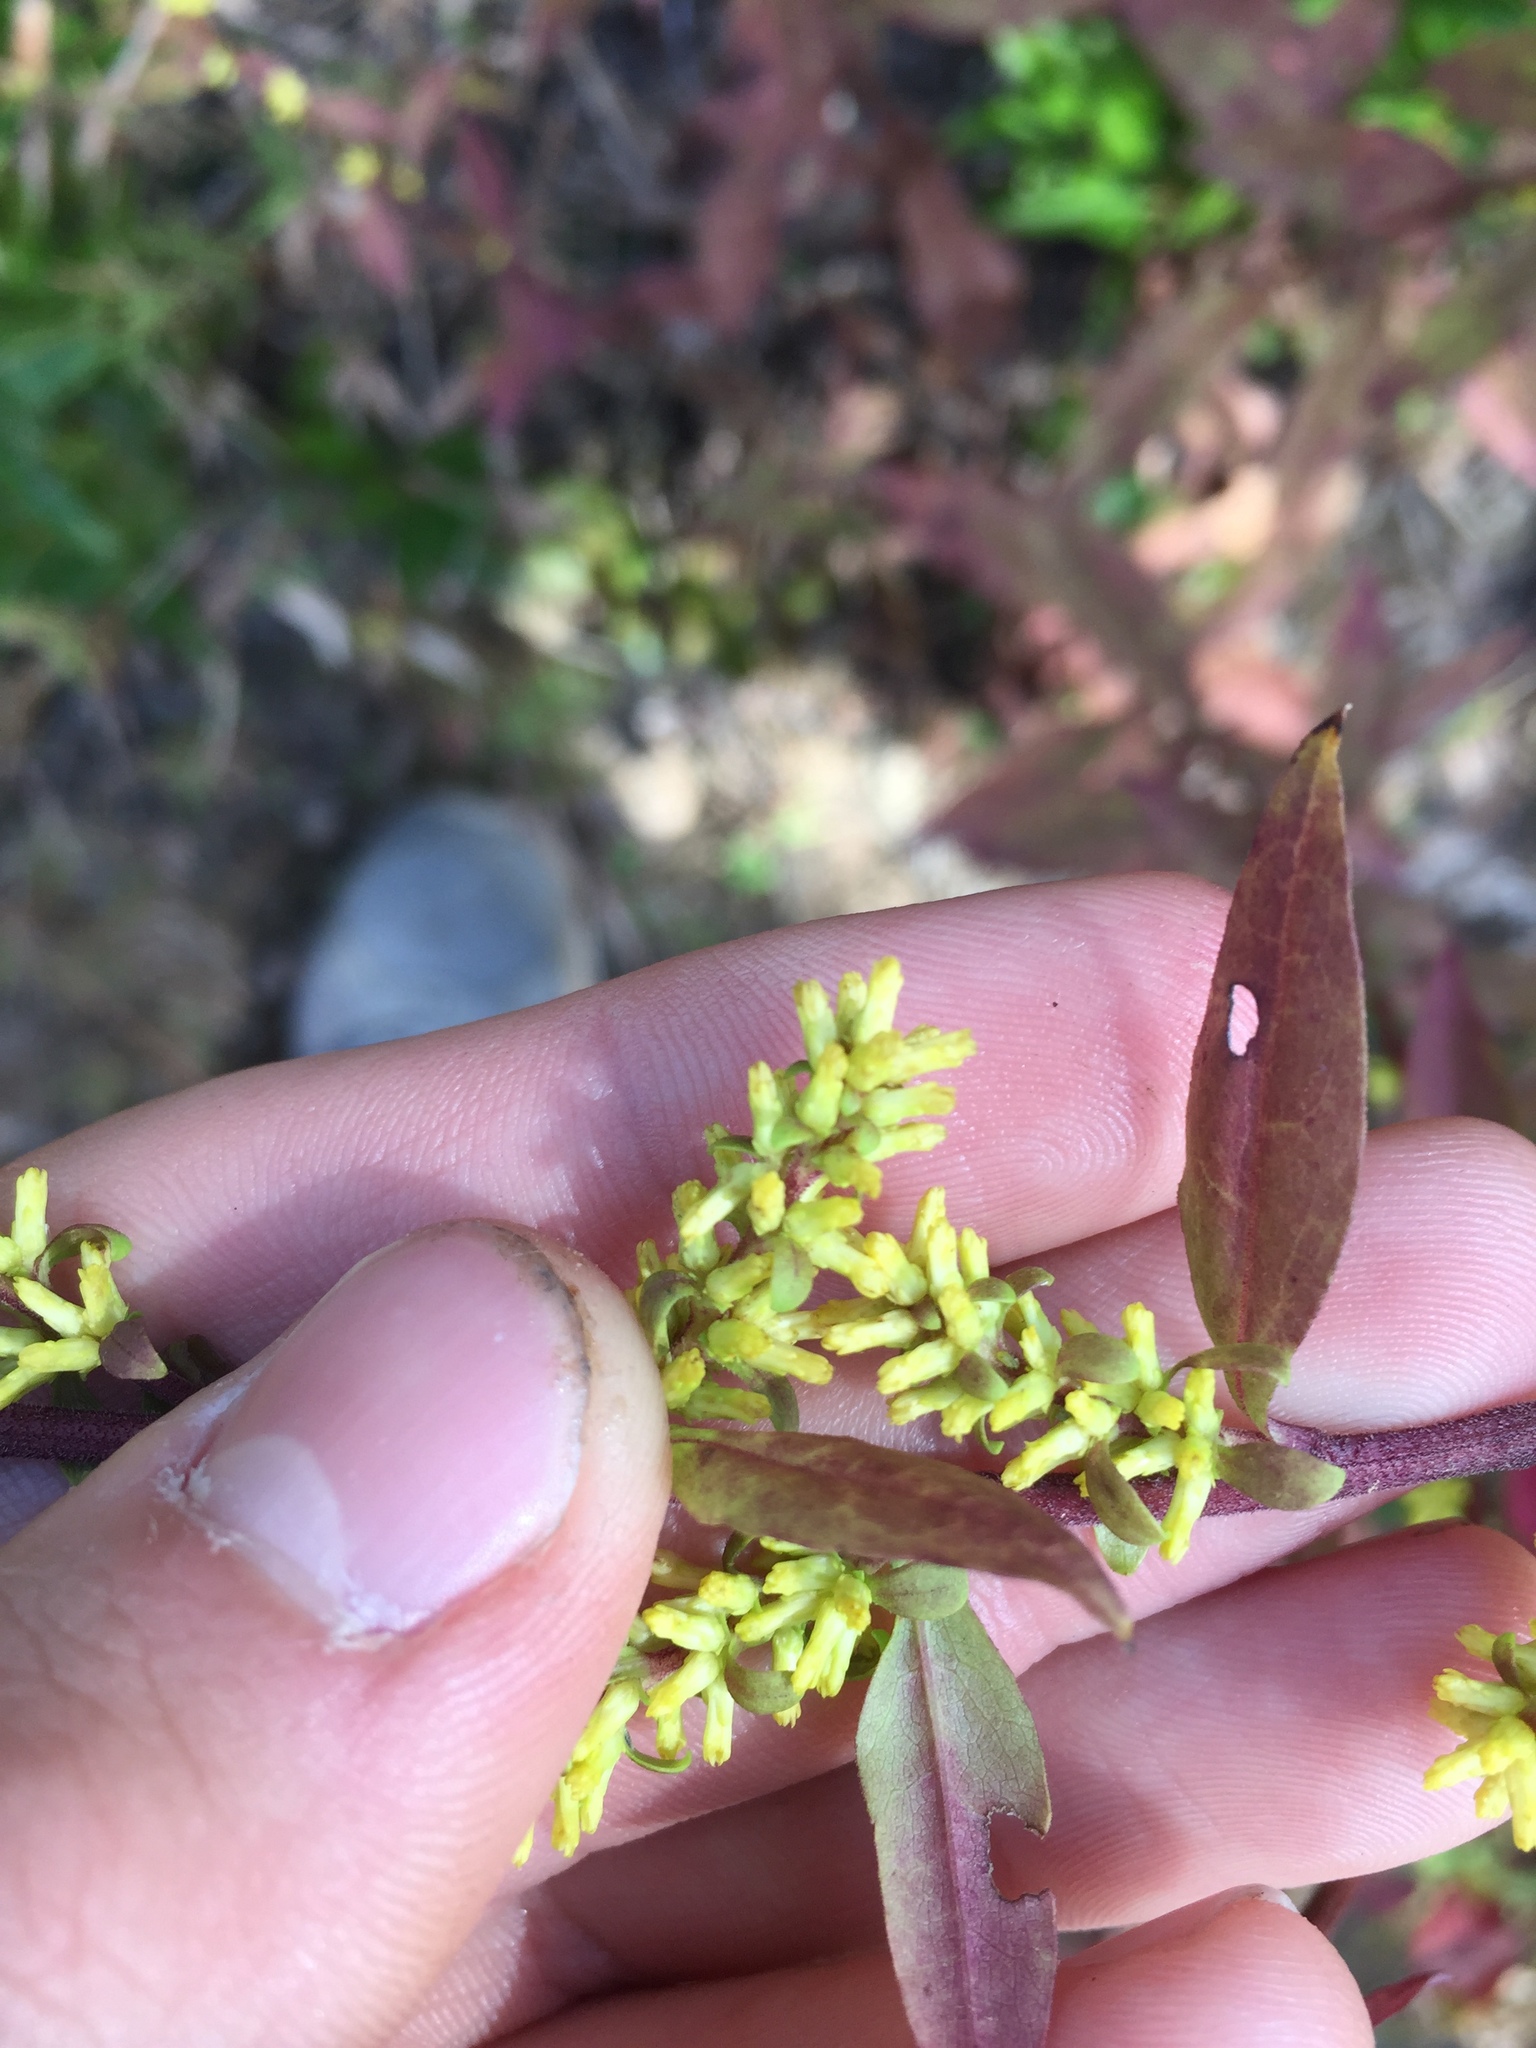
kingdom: Plantae
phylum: Tracheophyta
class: Magnoliopsida
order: Asterales
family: Asteraceae
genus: Solidago
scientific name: Solidago erecta
